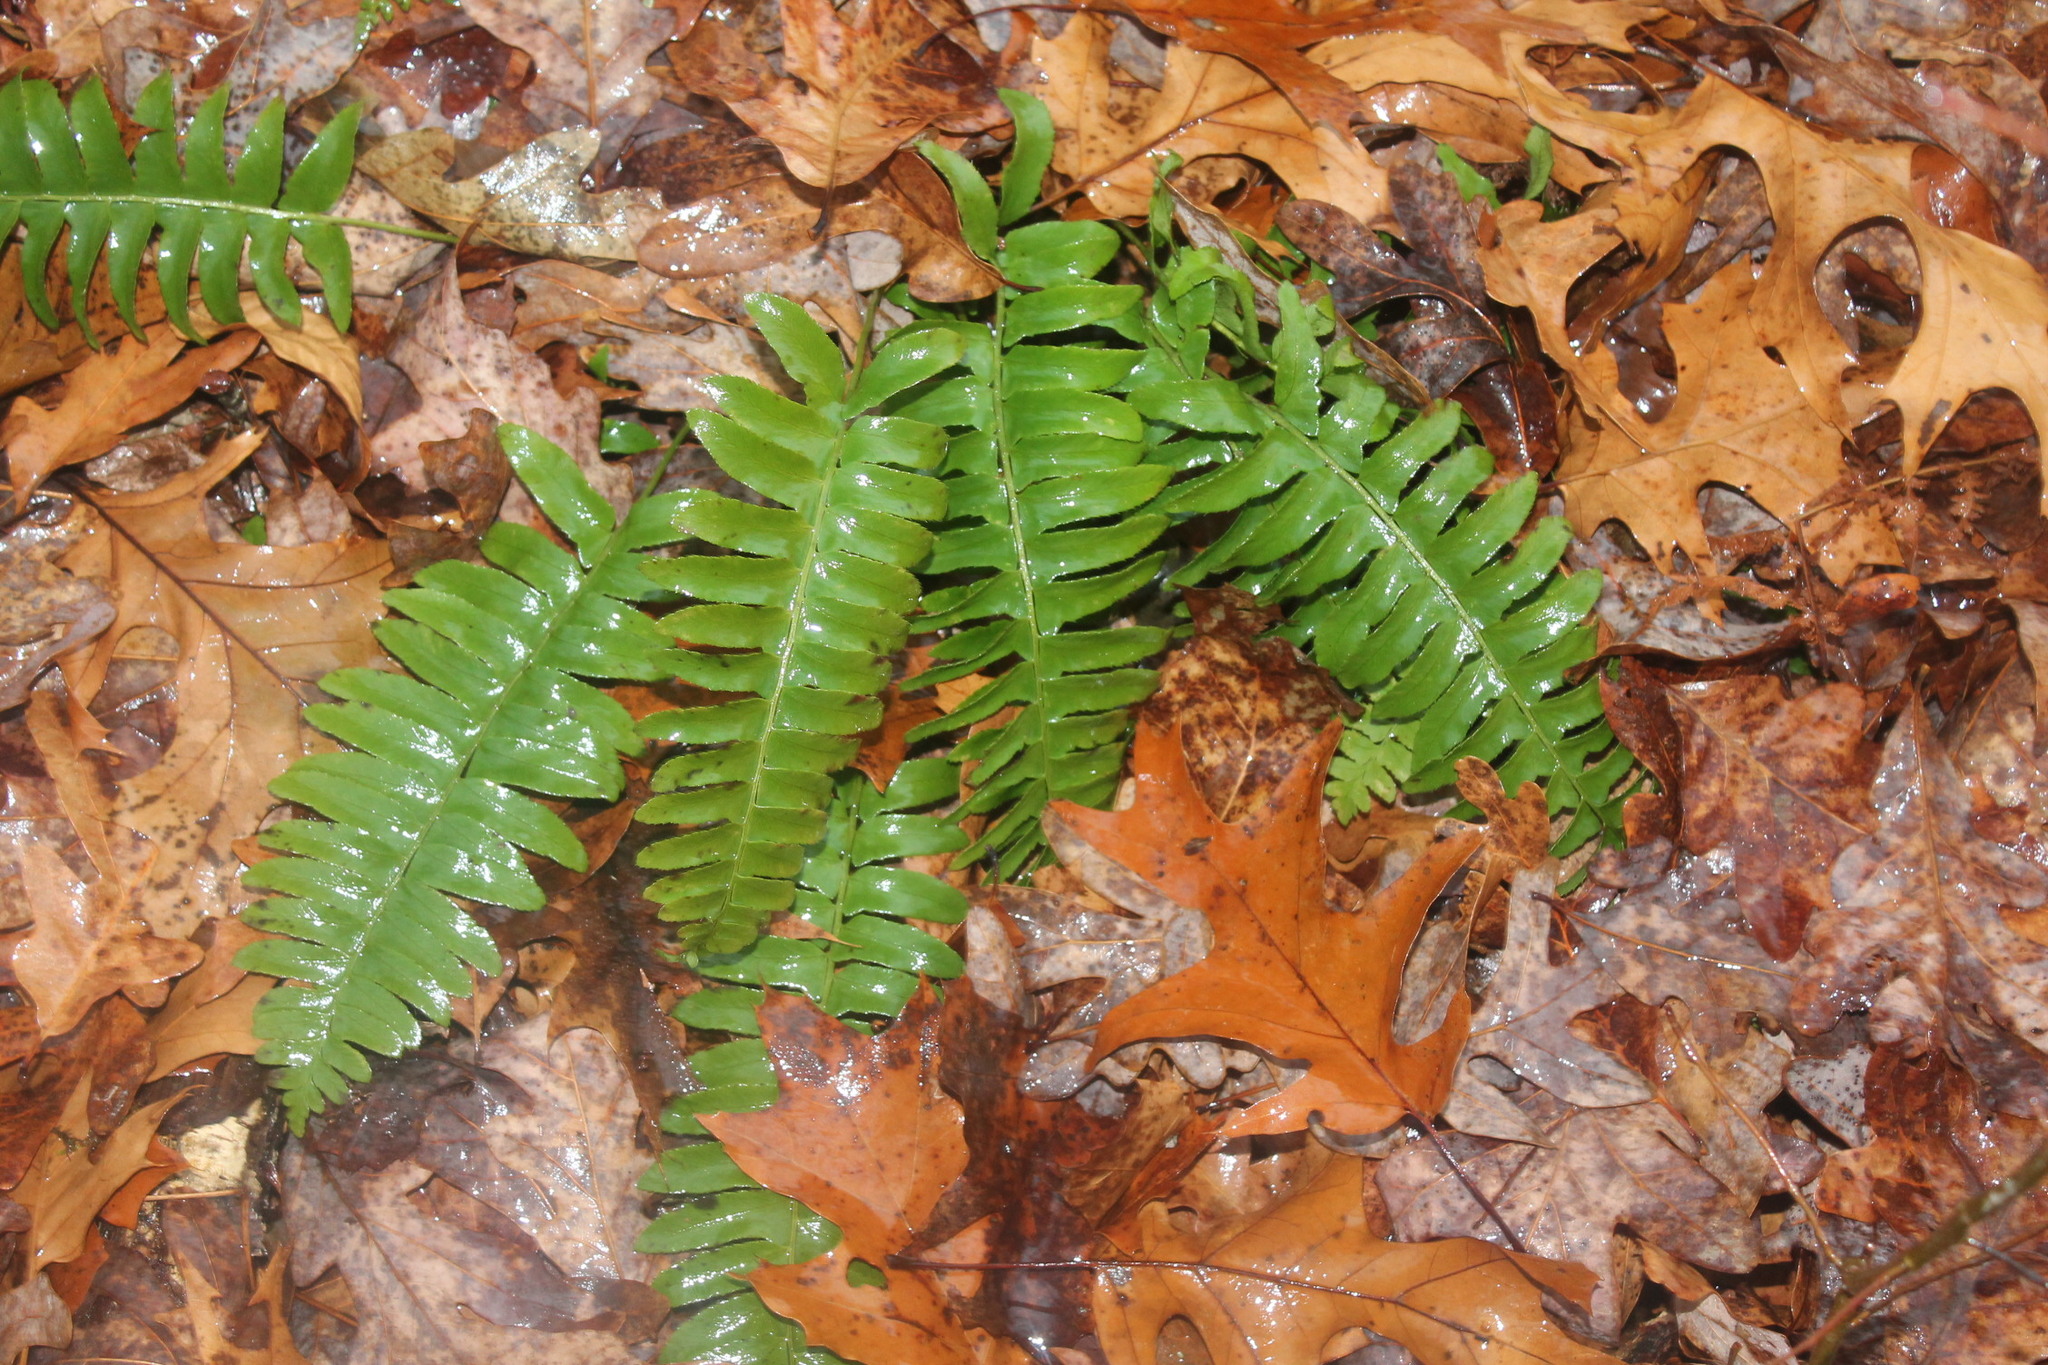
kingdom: Plantae
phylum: Tracheophyta
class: Polypodiopsida
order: Polypodiales
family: Dryopteridaceae
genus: Polystichum
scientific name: Polystichum acrostichoides
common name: Christmas fern
